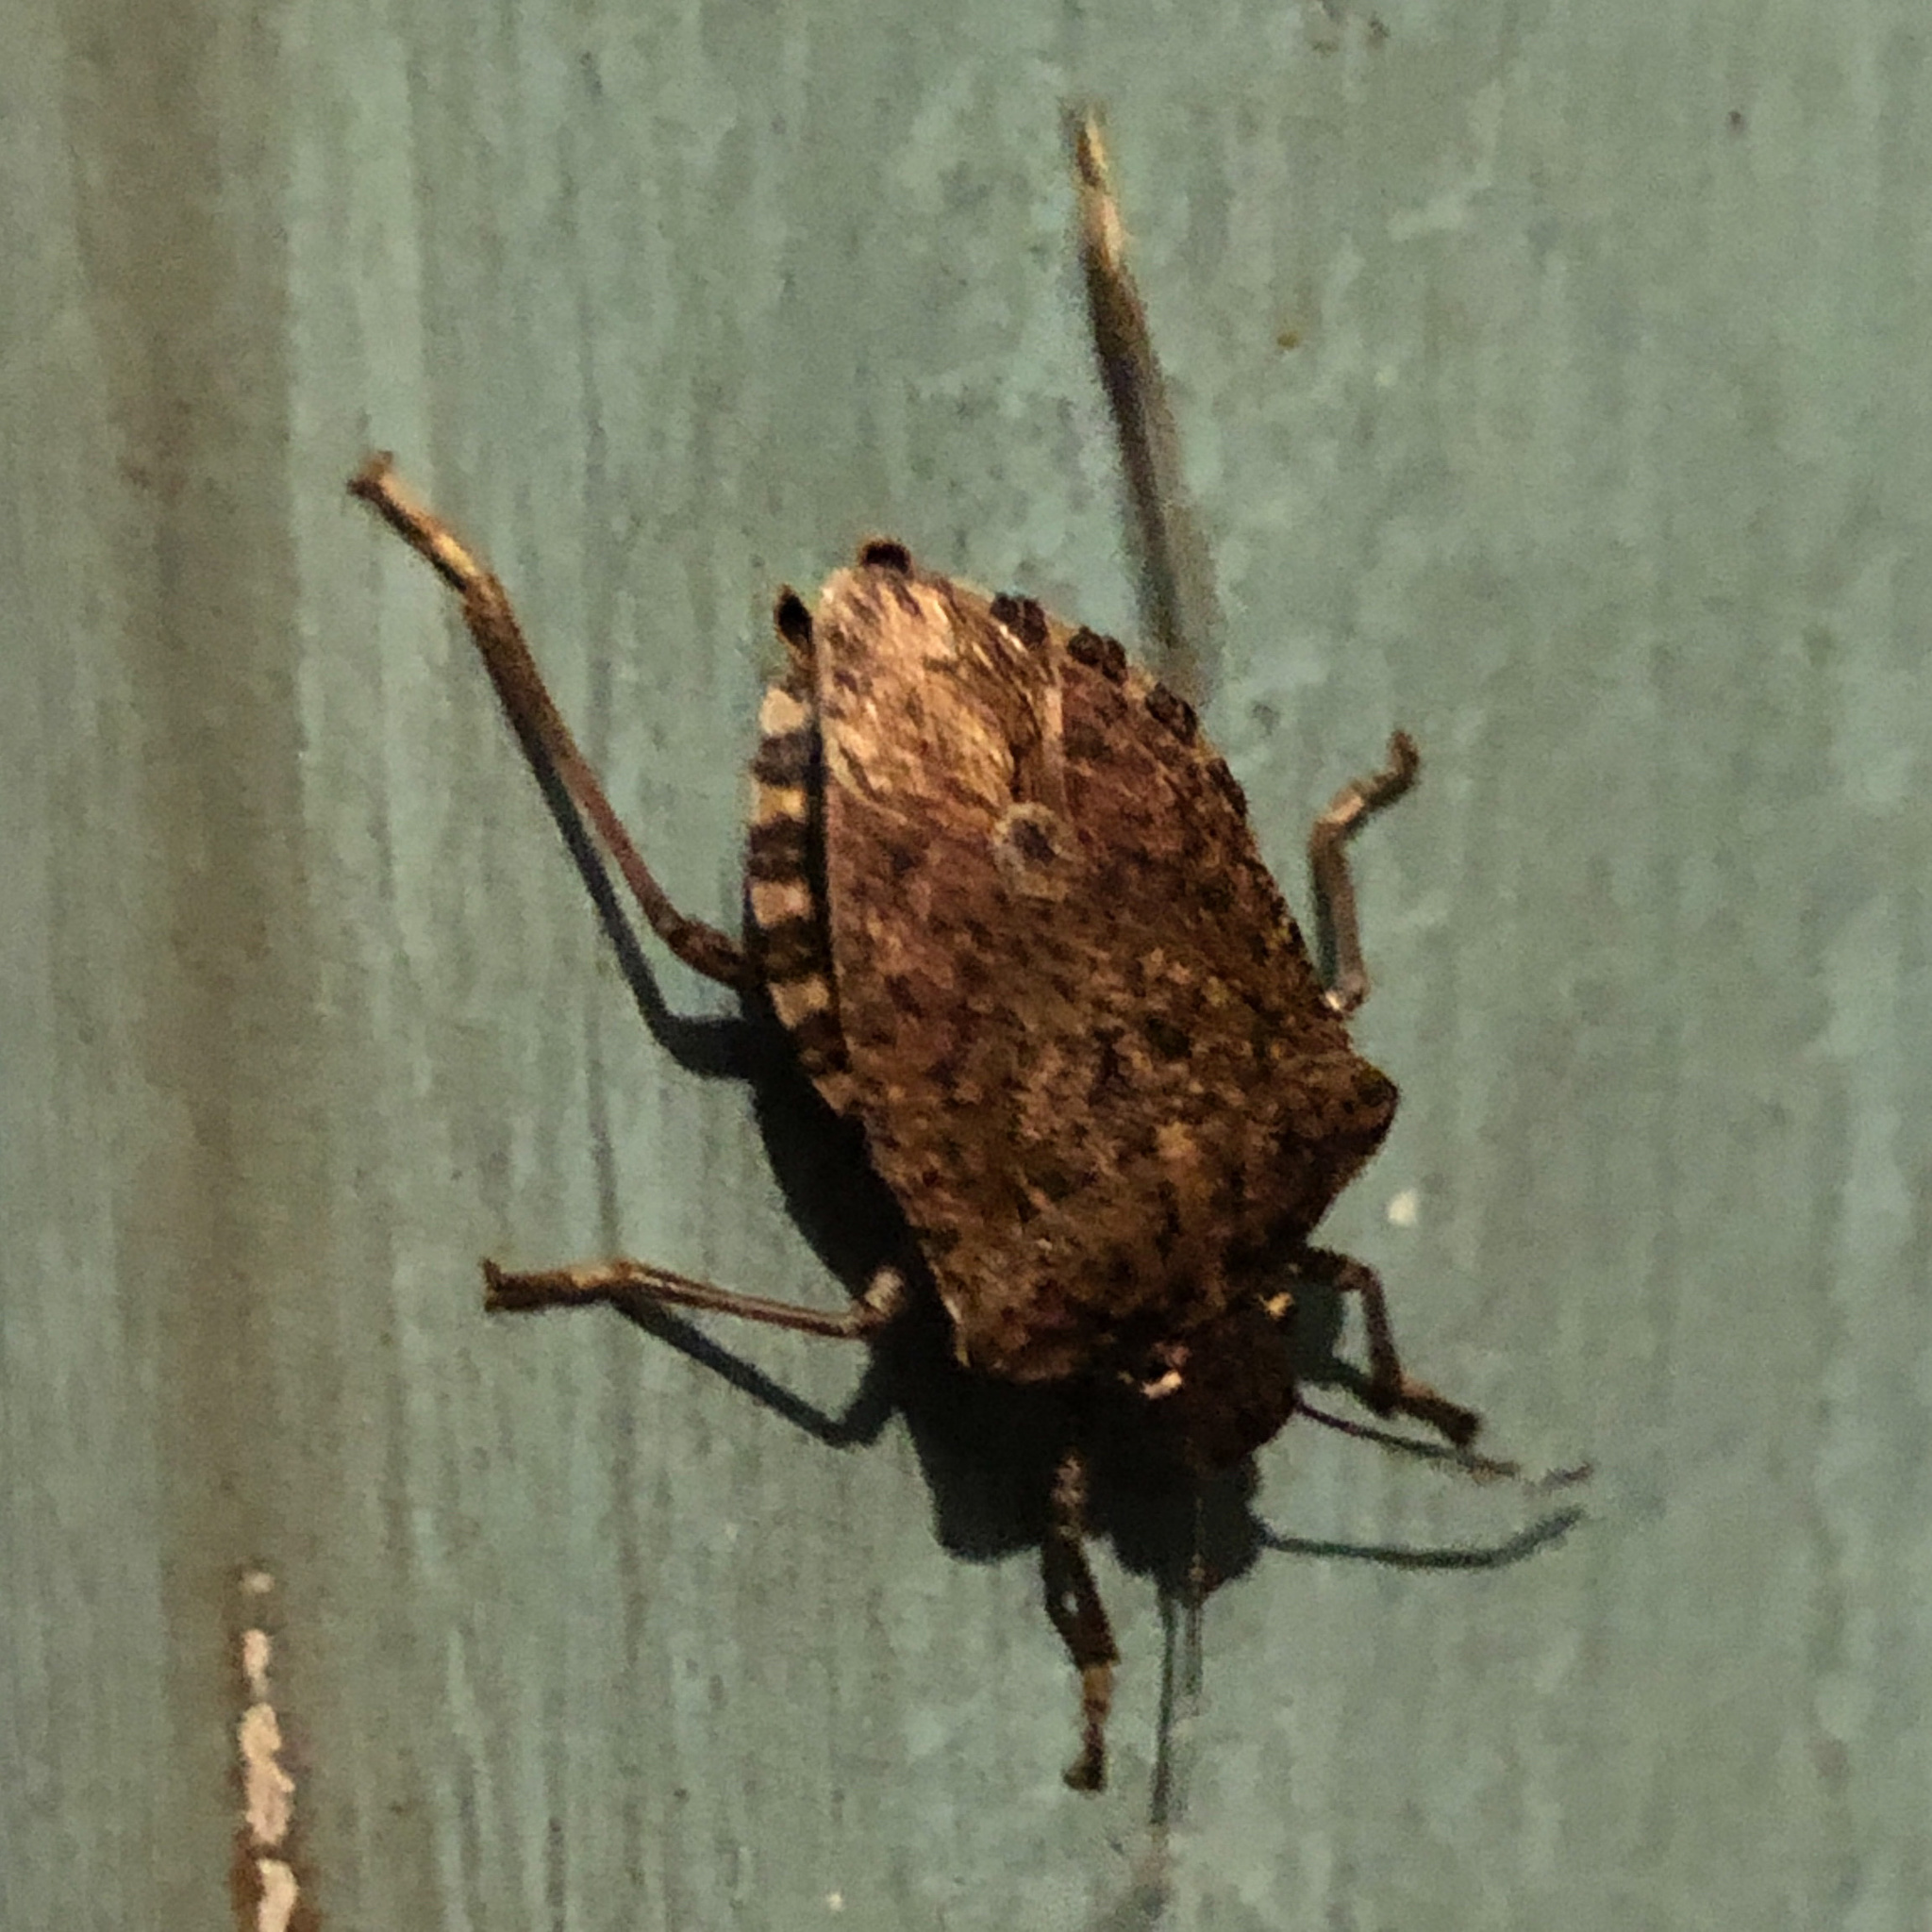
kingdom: Animalia
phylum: Arthropoda
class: Insecta
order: Hemiptera
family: Pentatomidae
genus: Halyomorpha
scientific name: Halyomorpha halys
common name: Brown marmorated stink bug
